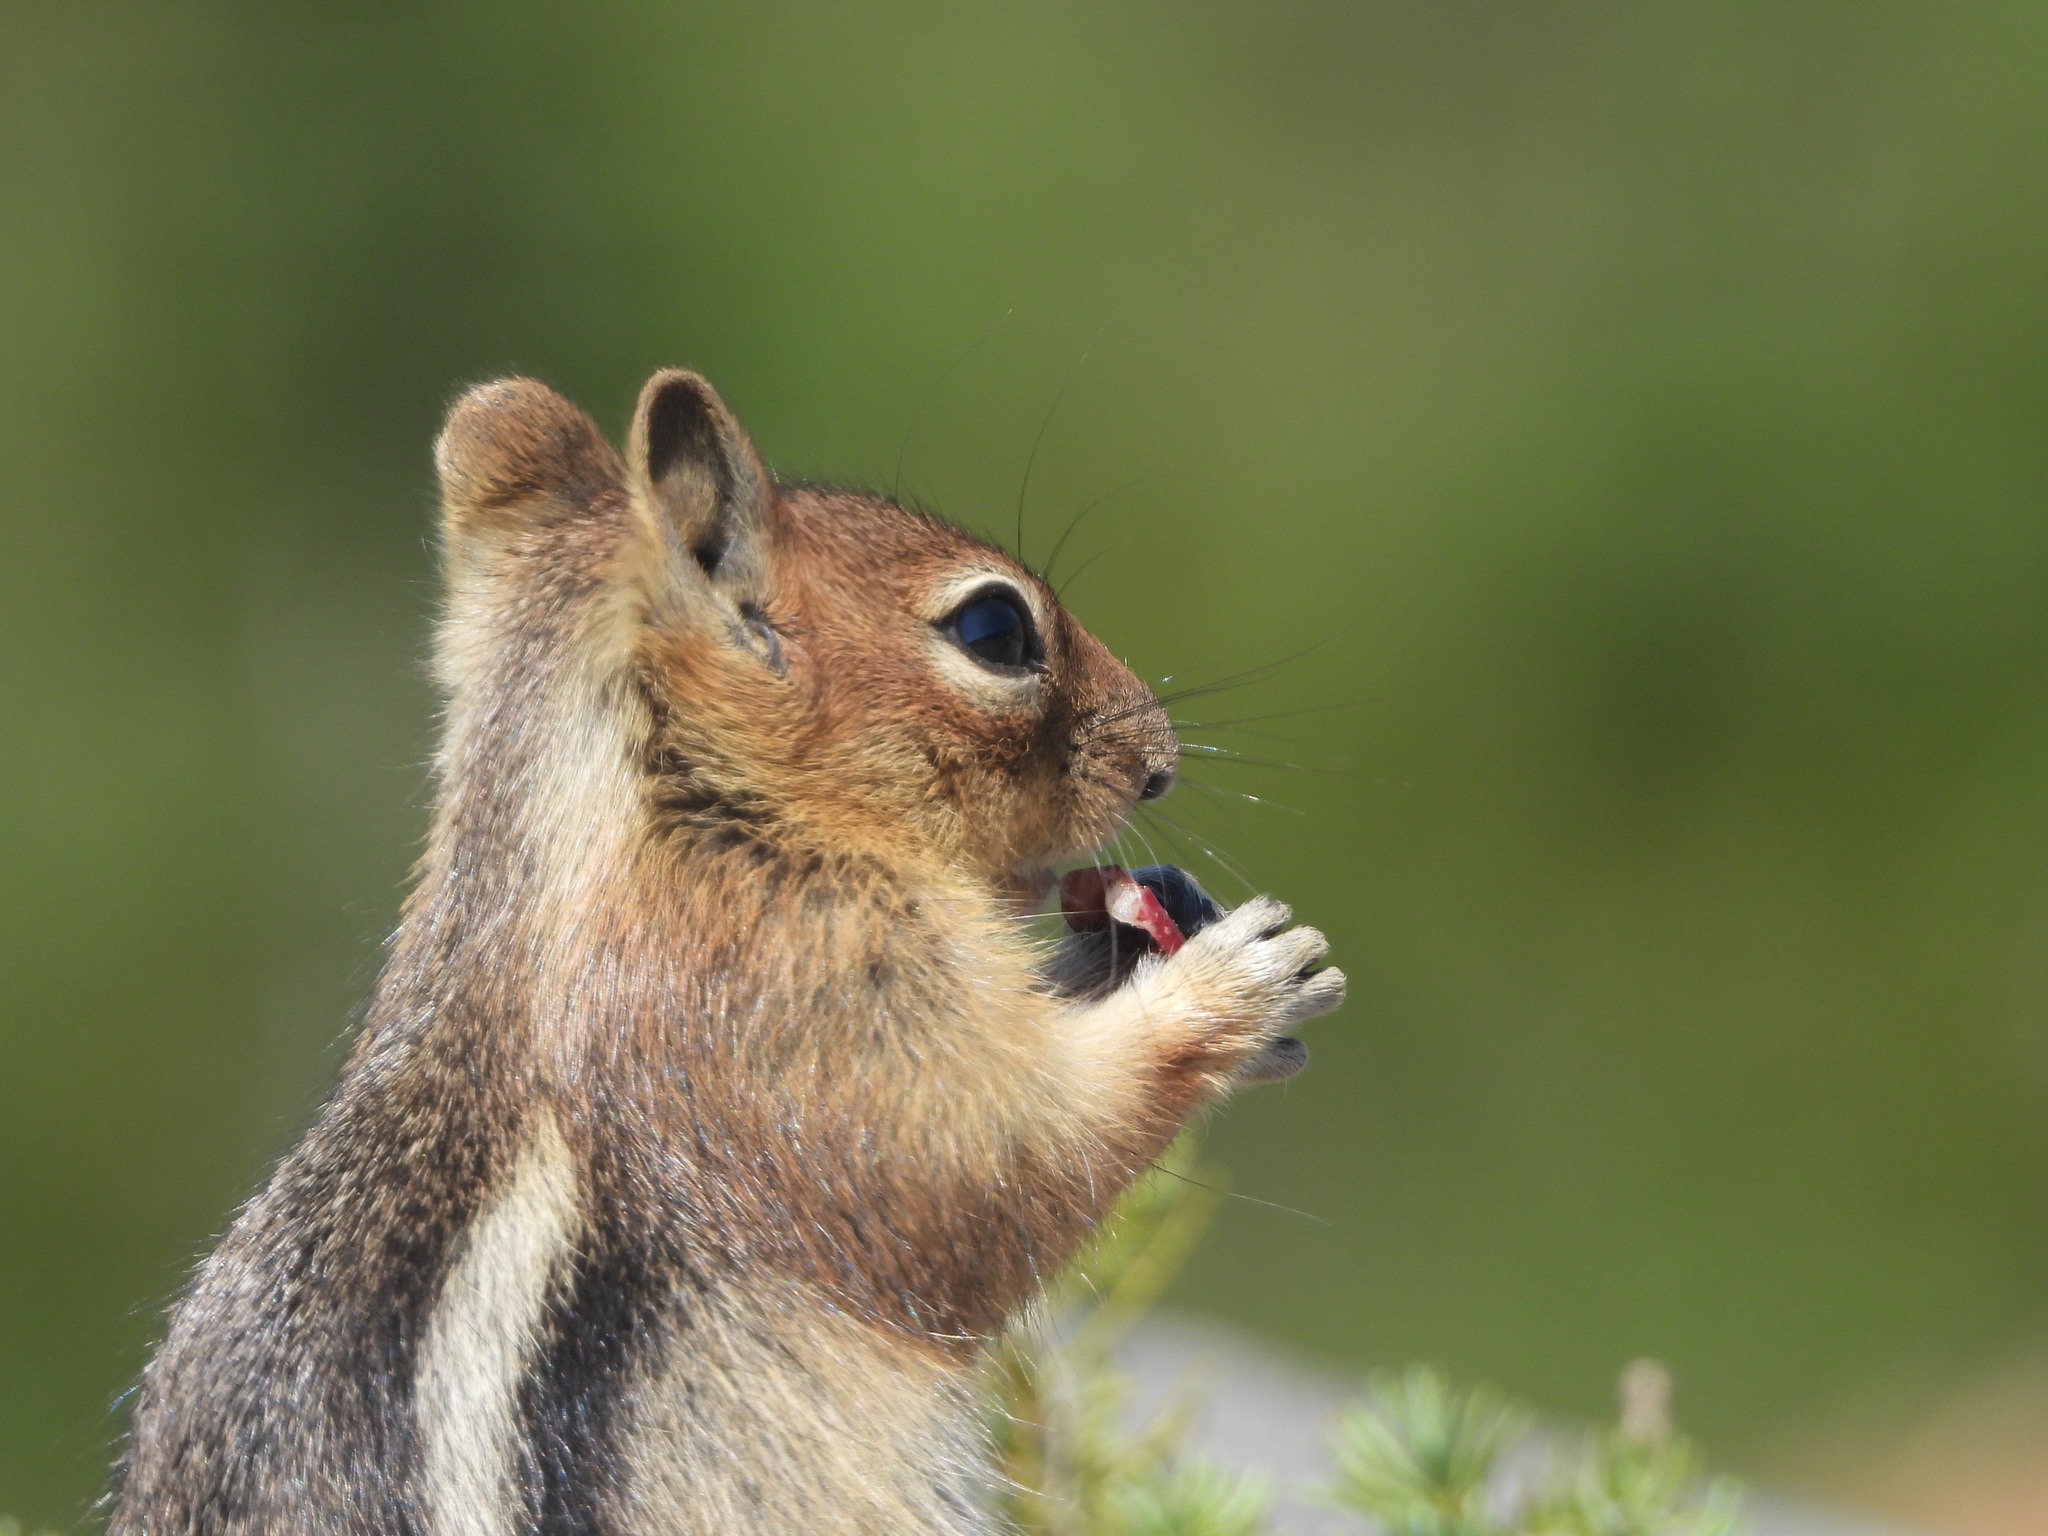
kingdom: Animalia
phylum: Chordata
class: Mammalia
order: Rodentia
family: Sciuridae
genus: Callospermophilus
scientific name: Callospermophilus saturatus
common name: Cascade golden-mantled ground squirrel
